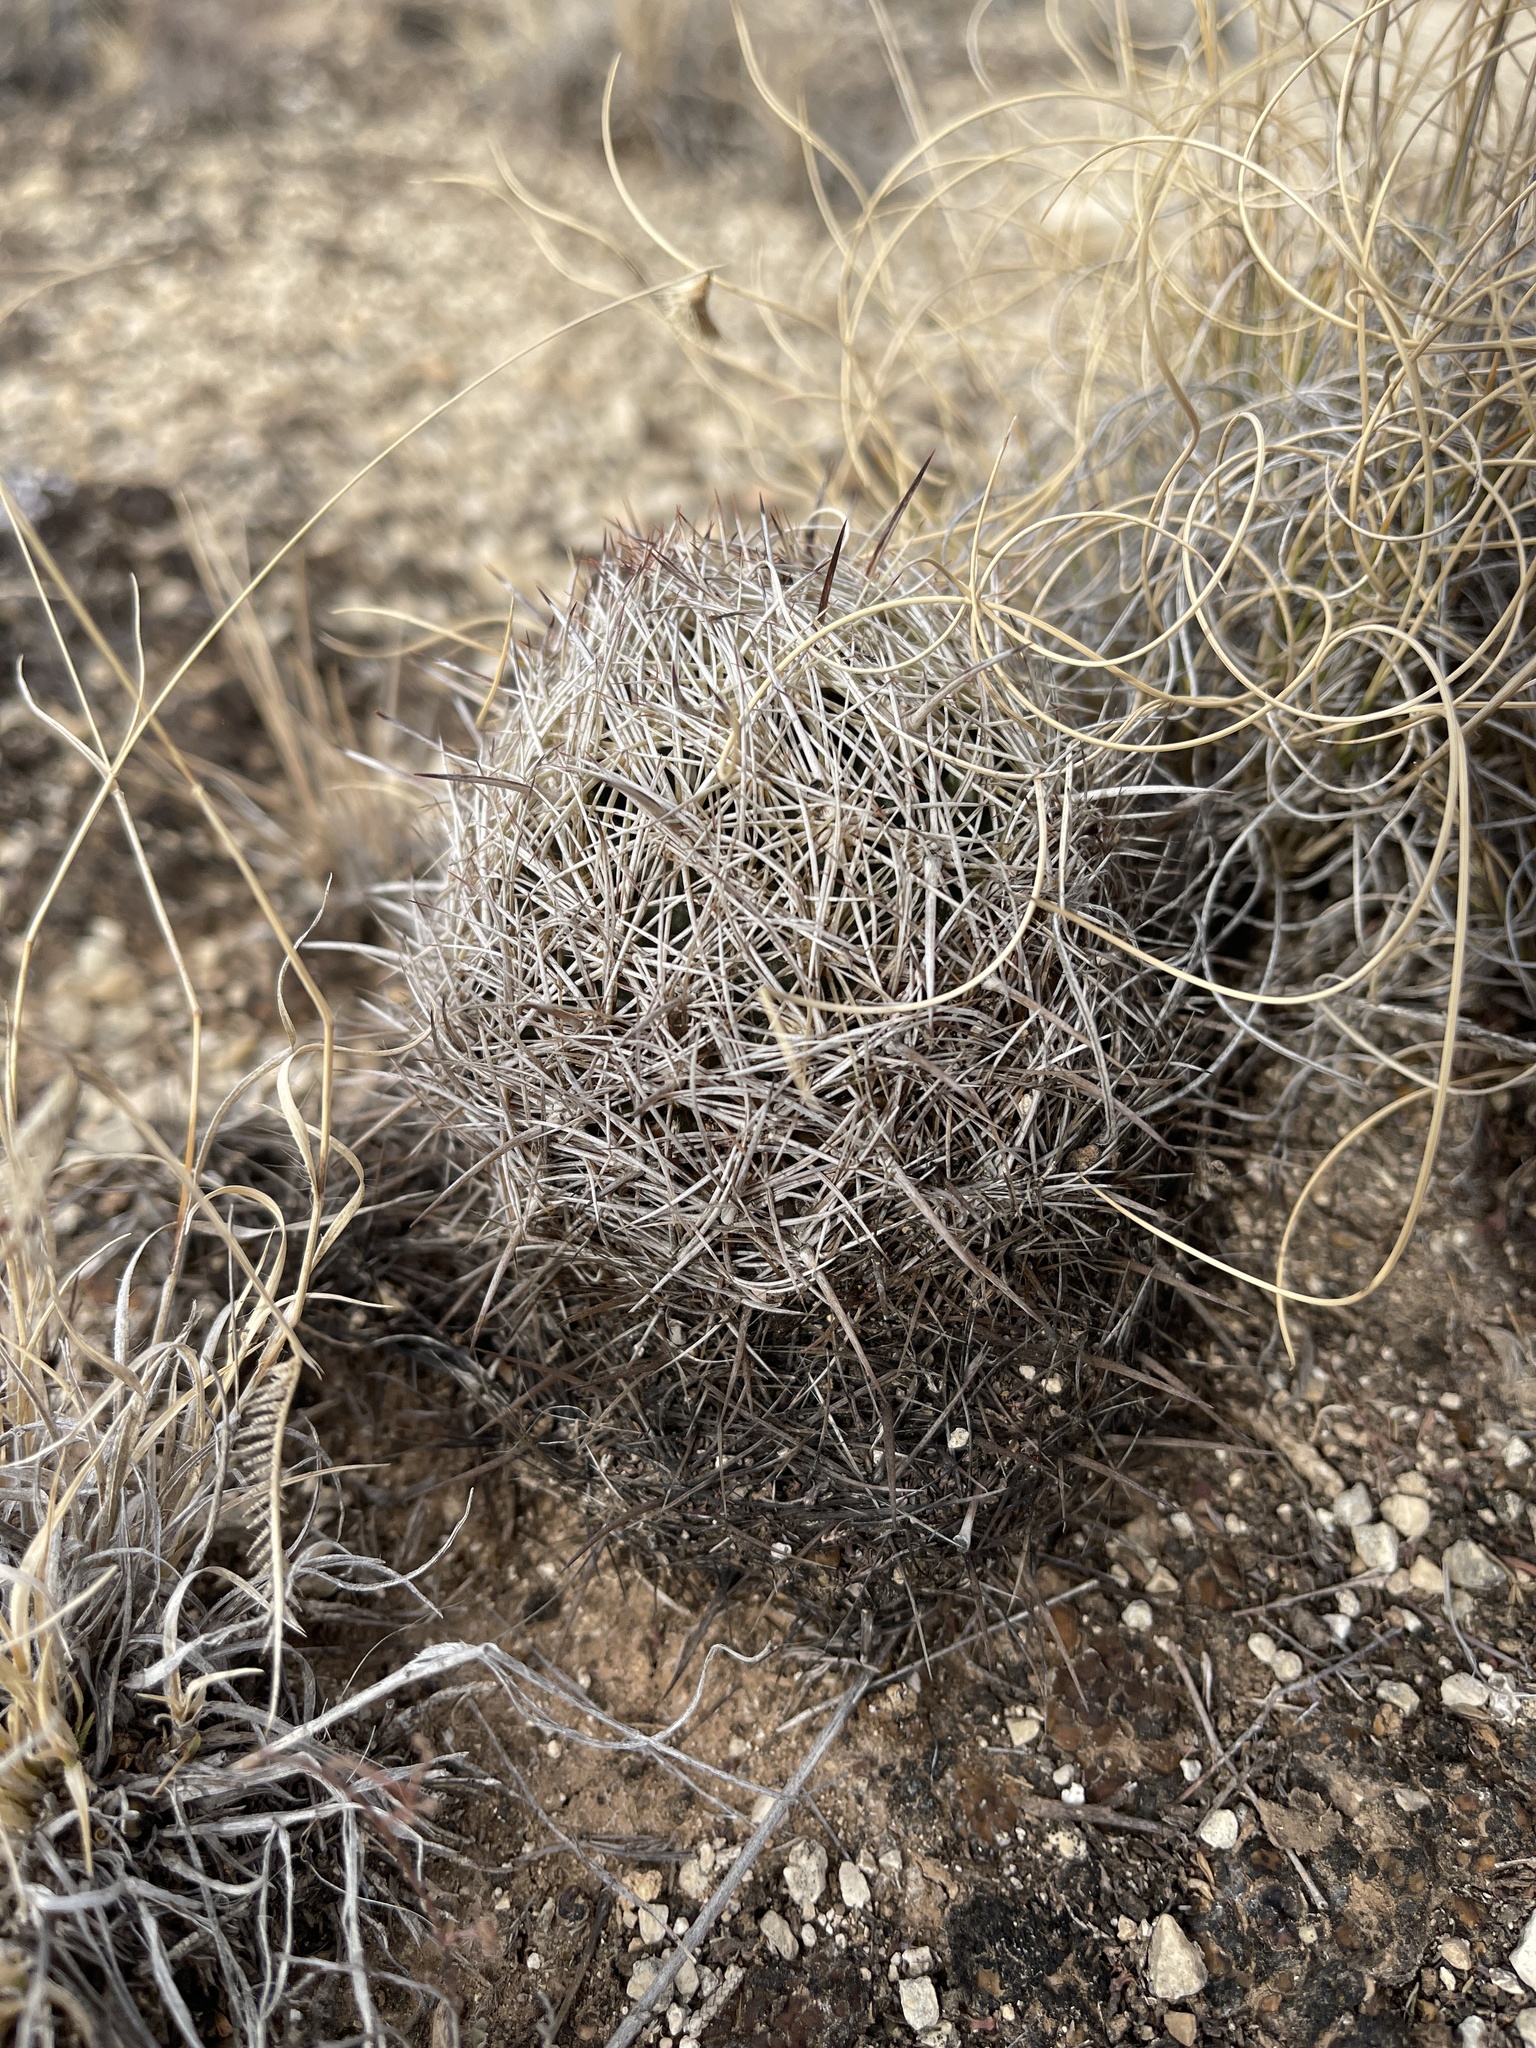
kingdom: Plantae
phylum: Tracheophyta
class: Magnoliopsida
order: Caryophyllales
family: Cactaceae
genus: Coryphantha
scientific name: Coryphantha echinus
